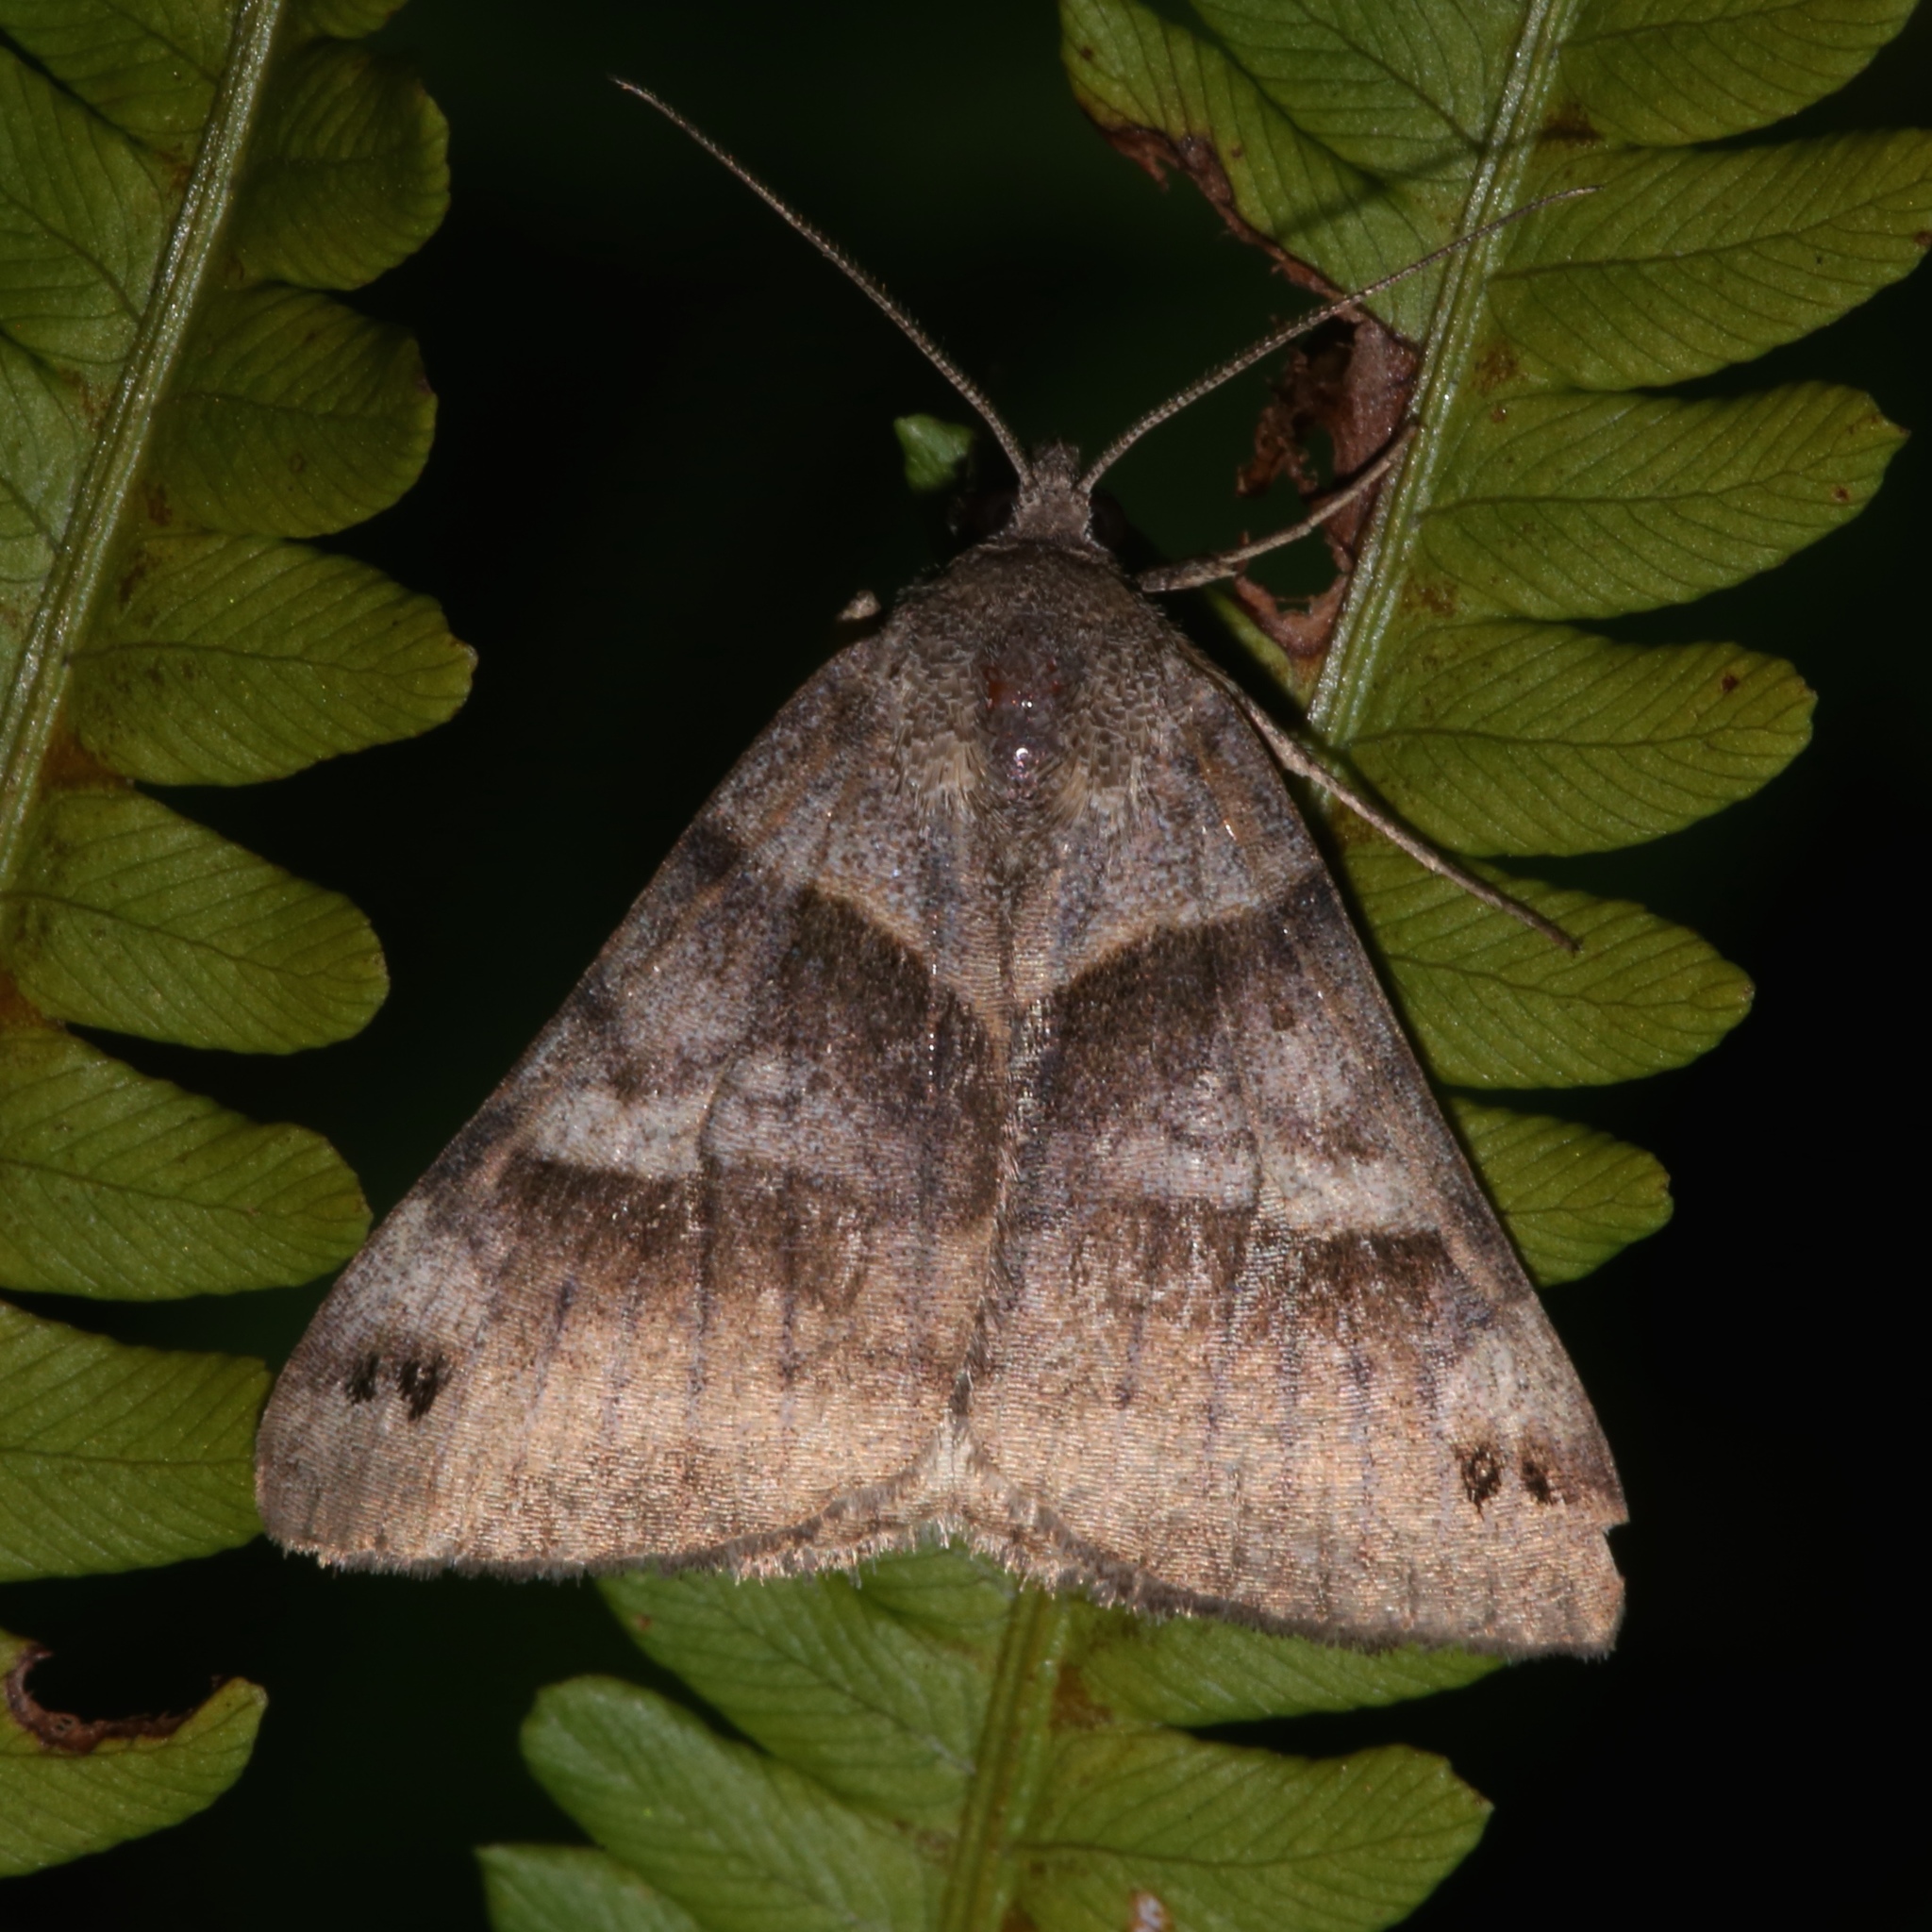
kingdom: Animalia
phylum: Arthropoda
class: Insecta
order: Lepidoptera
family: Erebidae
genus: Caenurgina
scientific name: Caenurgina crassiuscula
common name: Double-barred
